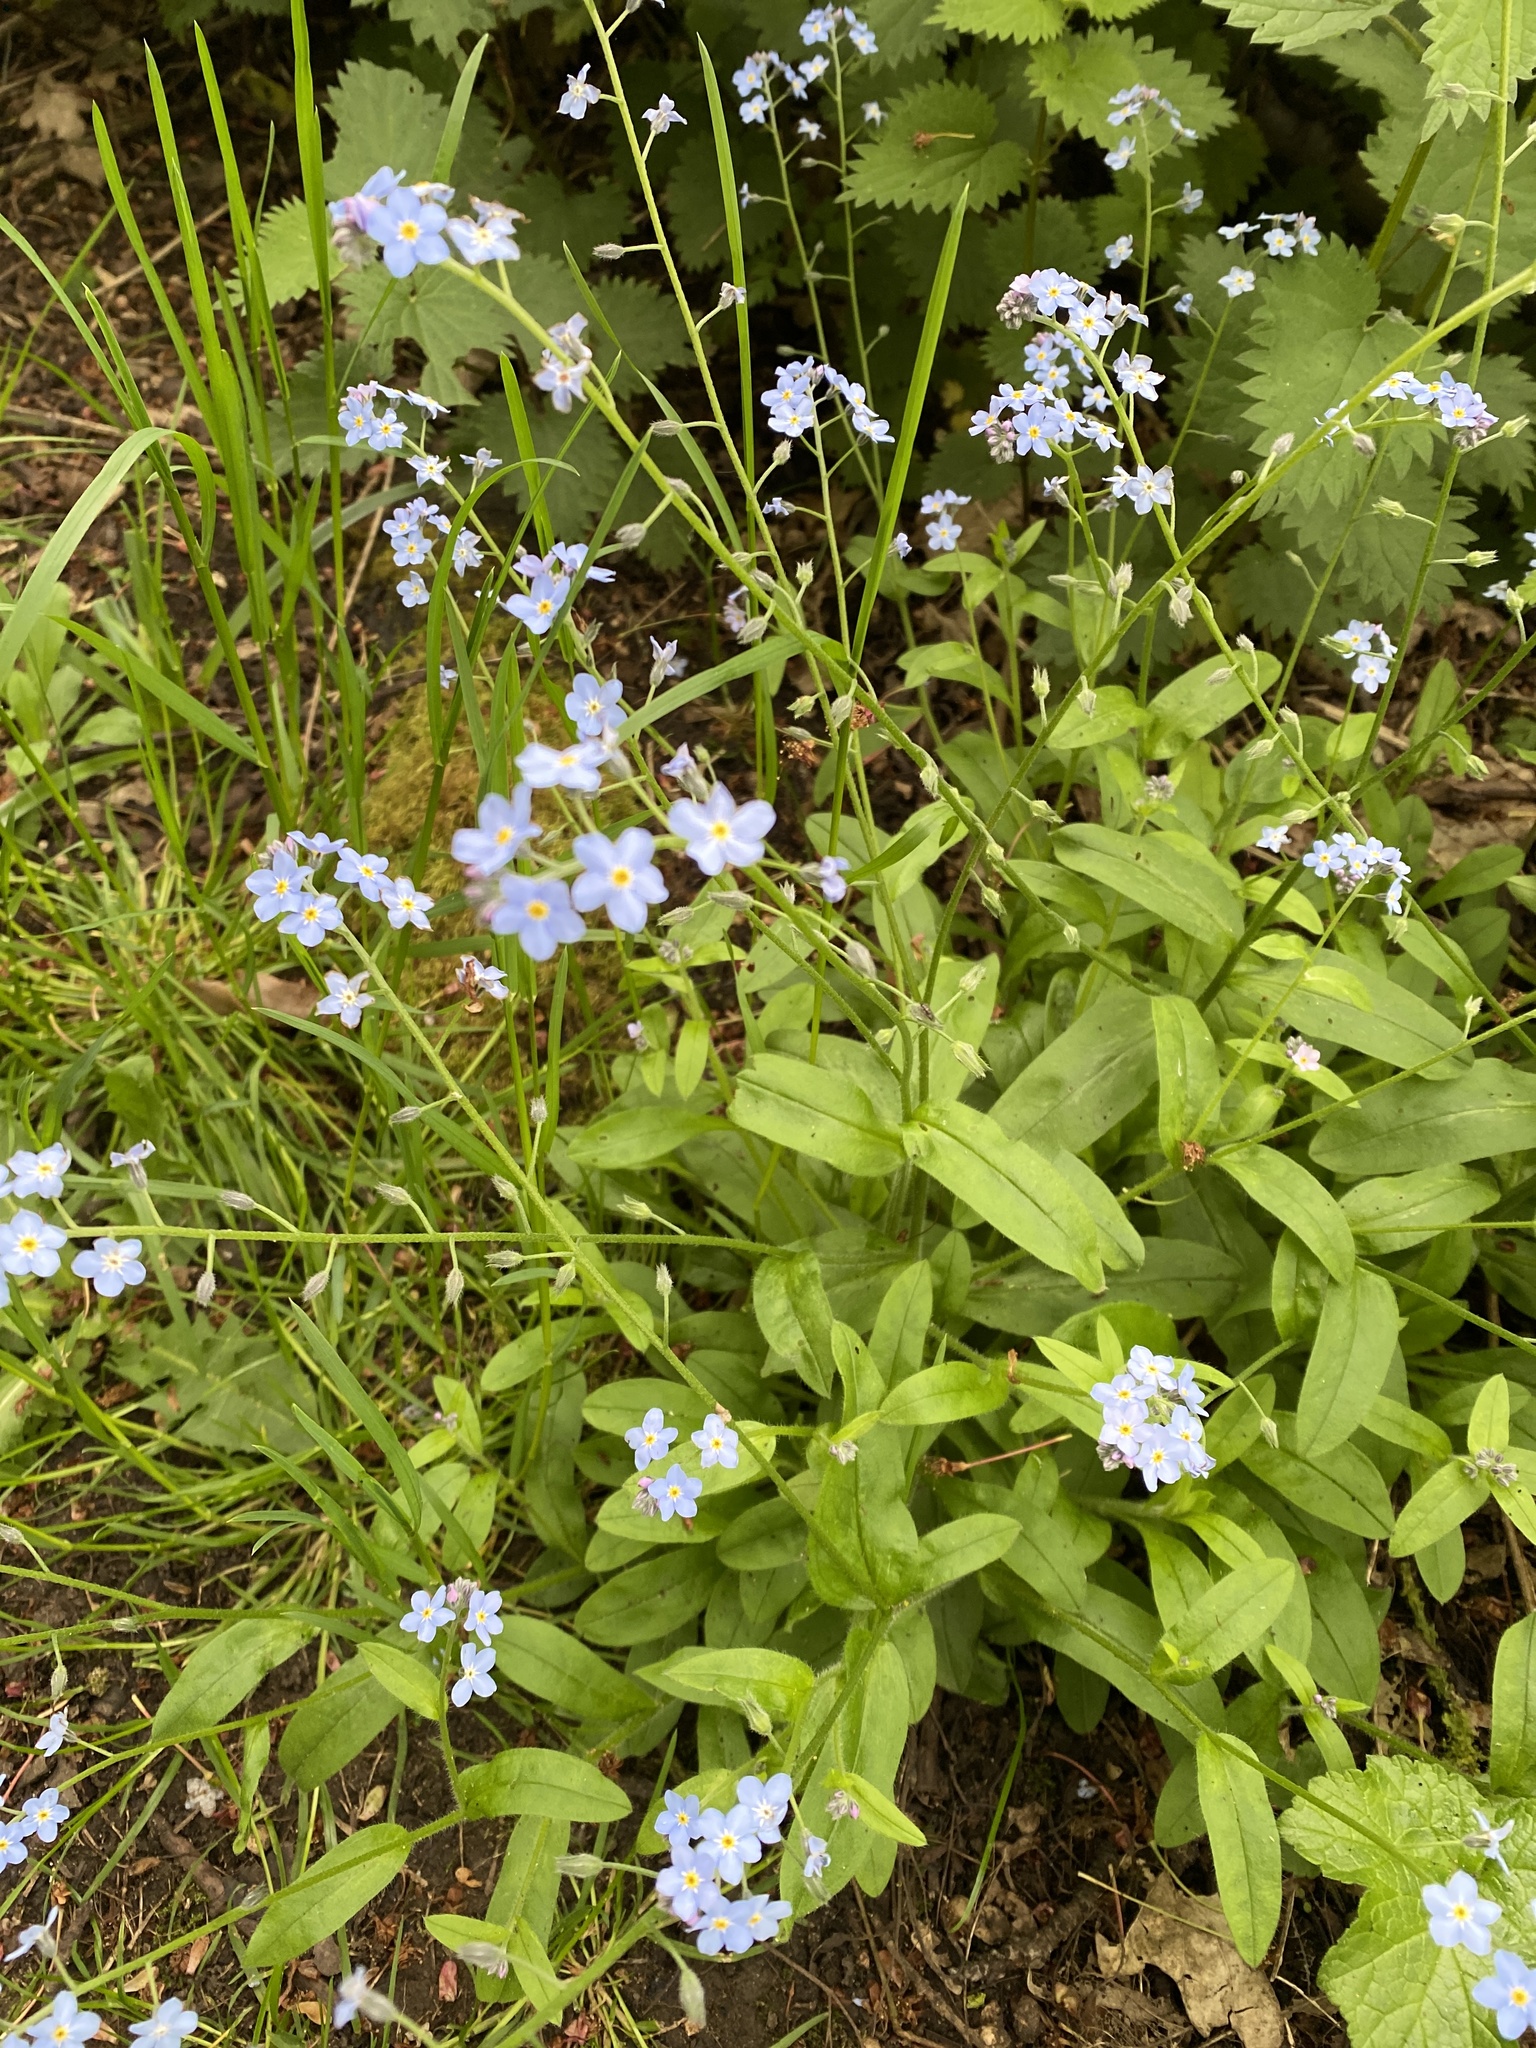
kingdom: Plantae
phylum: Tracheophyta
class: Magnoliopsida
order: Boraginales
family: Boraginaceae
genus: Myosotis
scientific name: Myosotis sylvatica
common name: Wood forget-me-not
